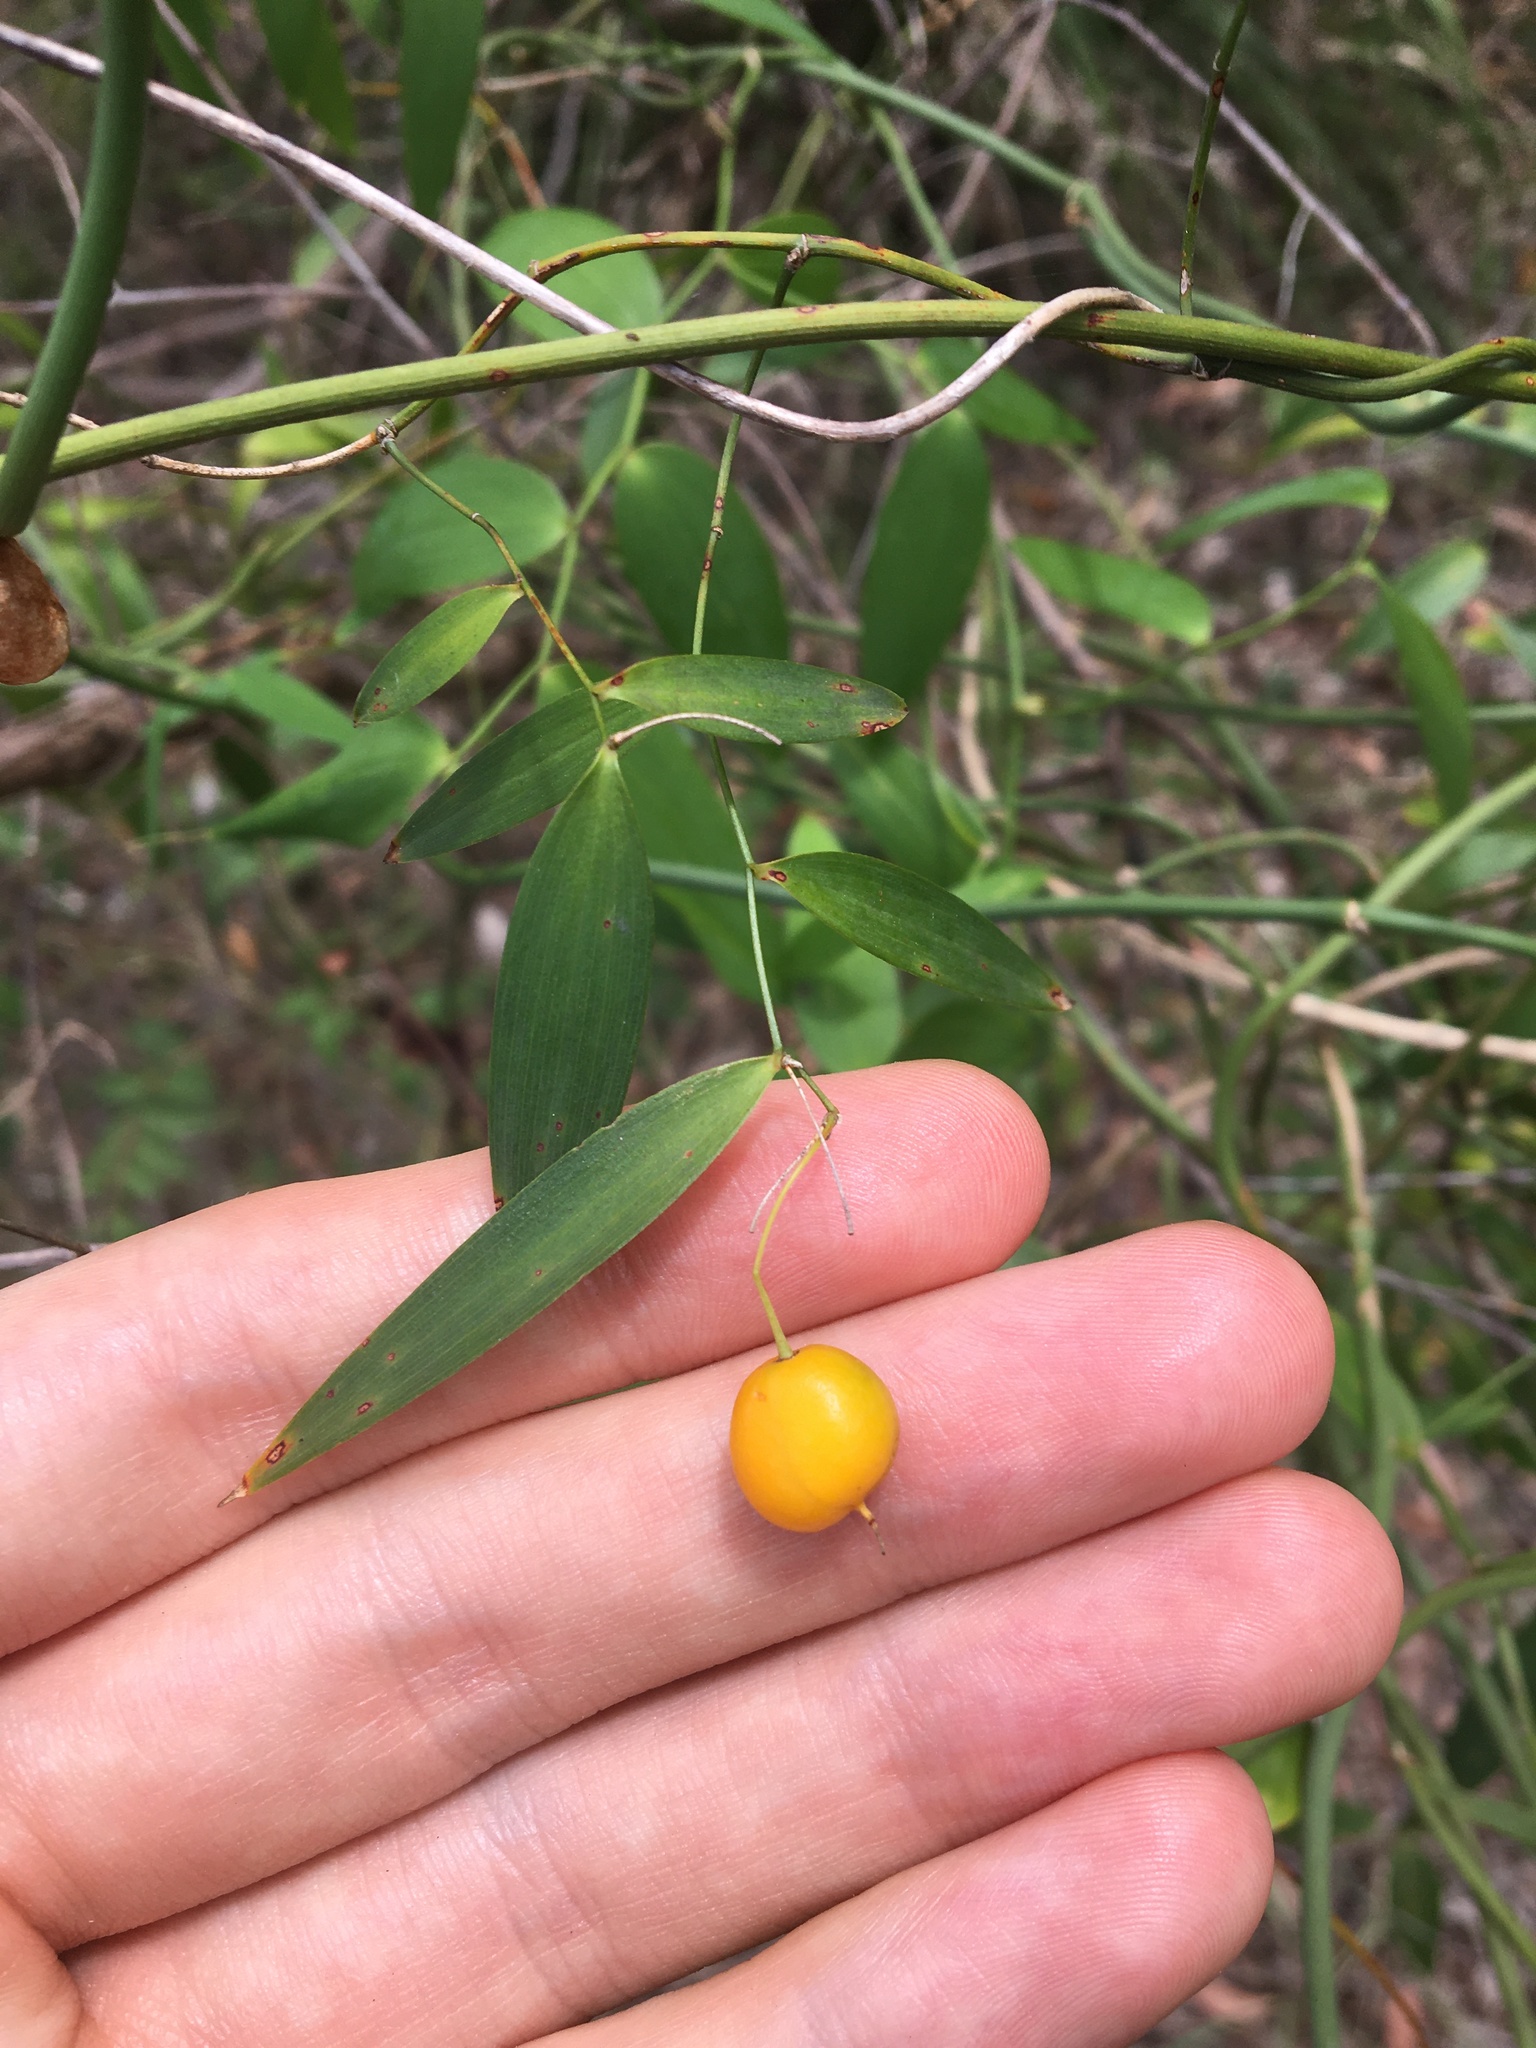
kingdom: Plantae
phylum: Tracheophyta
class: Liliopsida
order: Asparagales
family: Asparagaceae
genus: Eustrephus
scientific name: Eustrephus latifolius
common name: Orangevine
